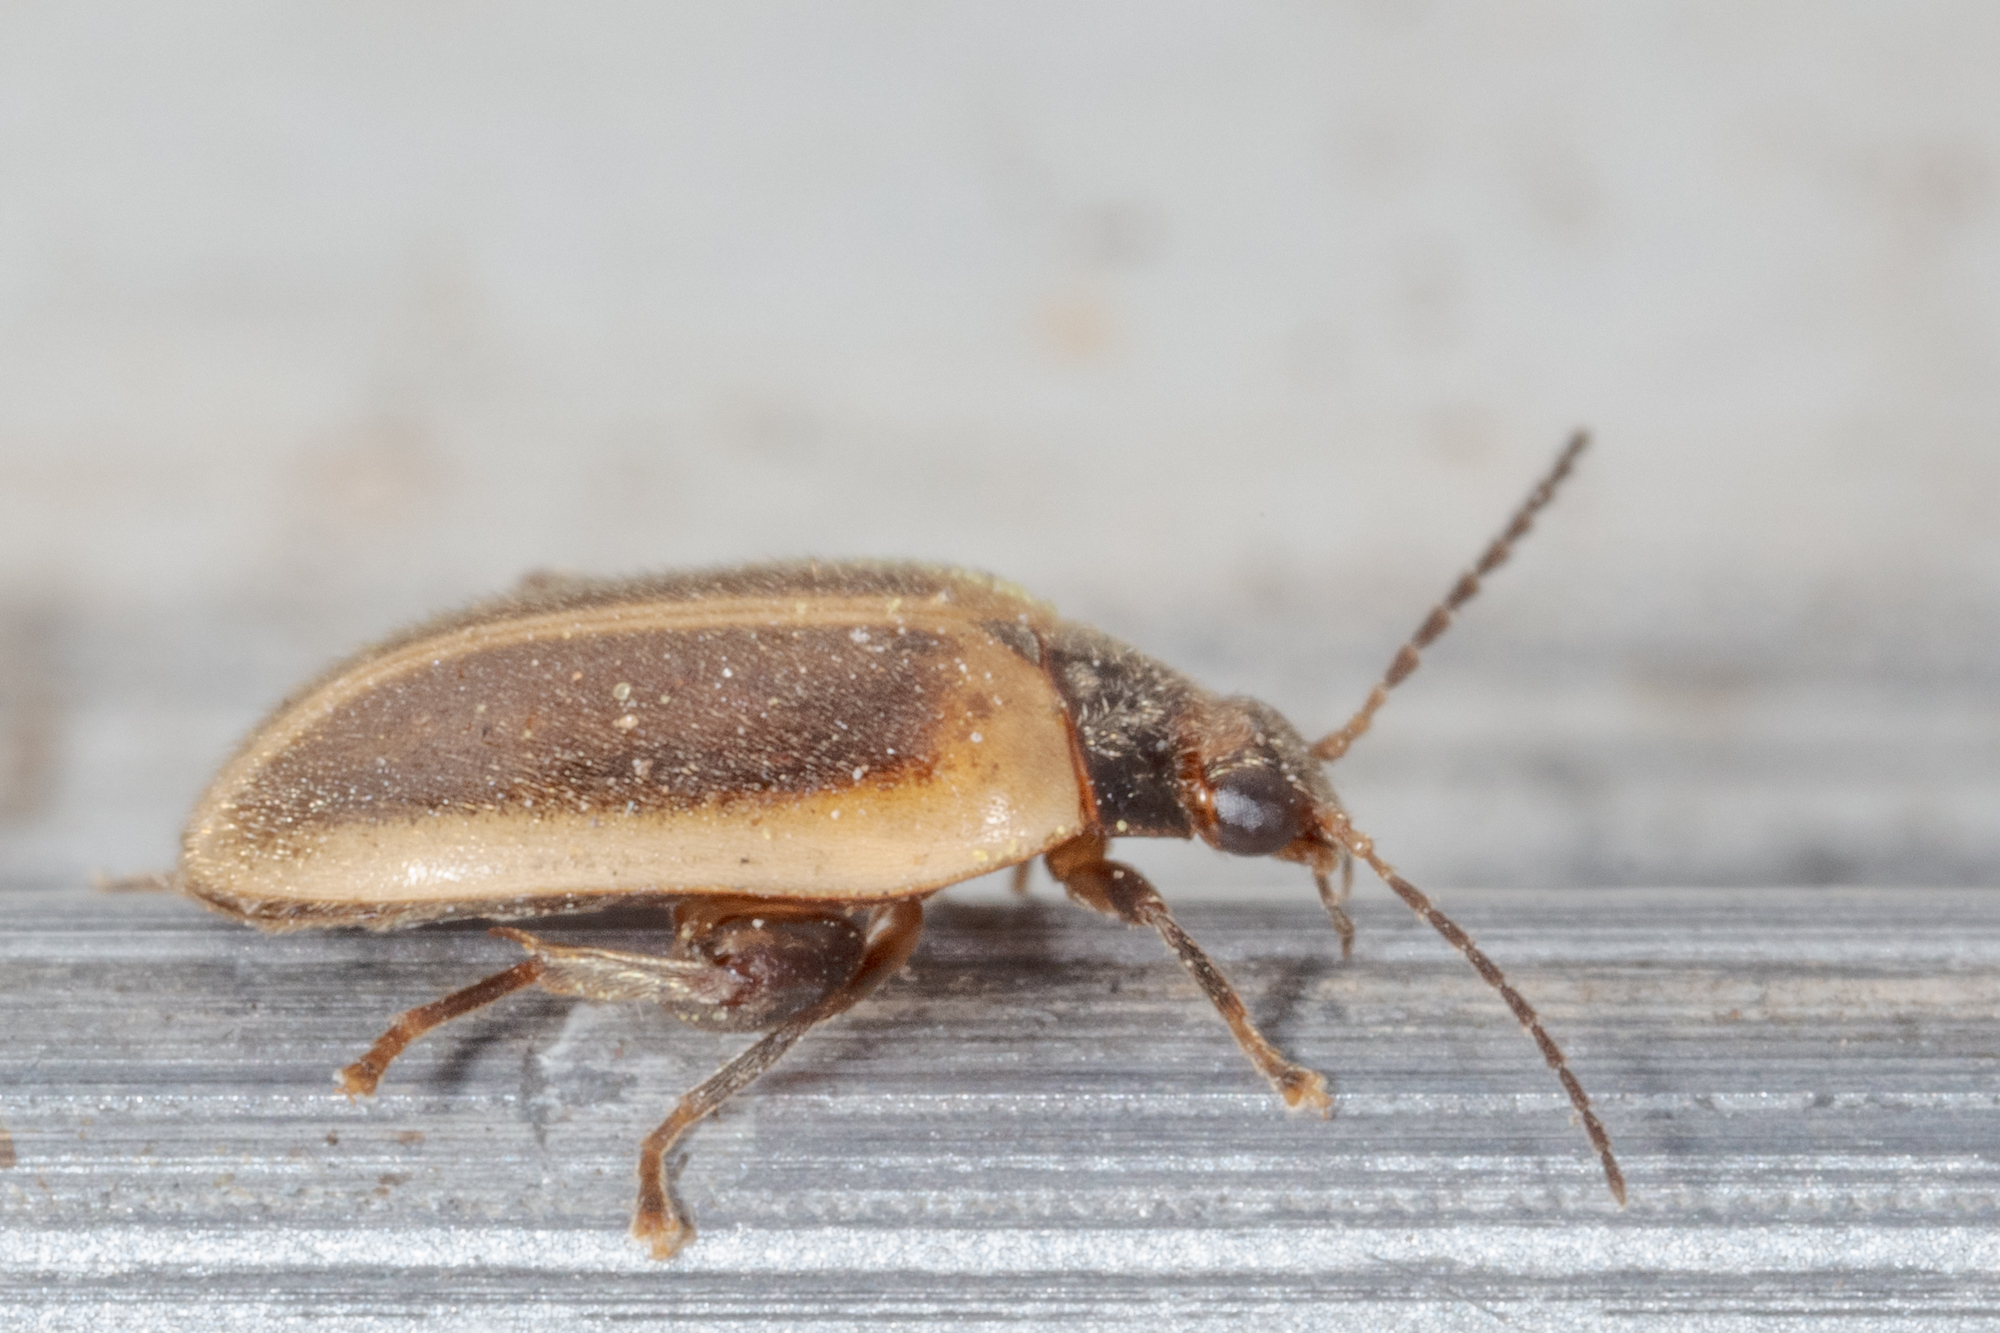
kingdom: Animalia
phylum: Arthropoda
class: Insecta
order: Coleoptera
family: Scirtidae
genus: Ora
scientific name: Ora discoidea
